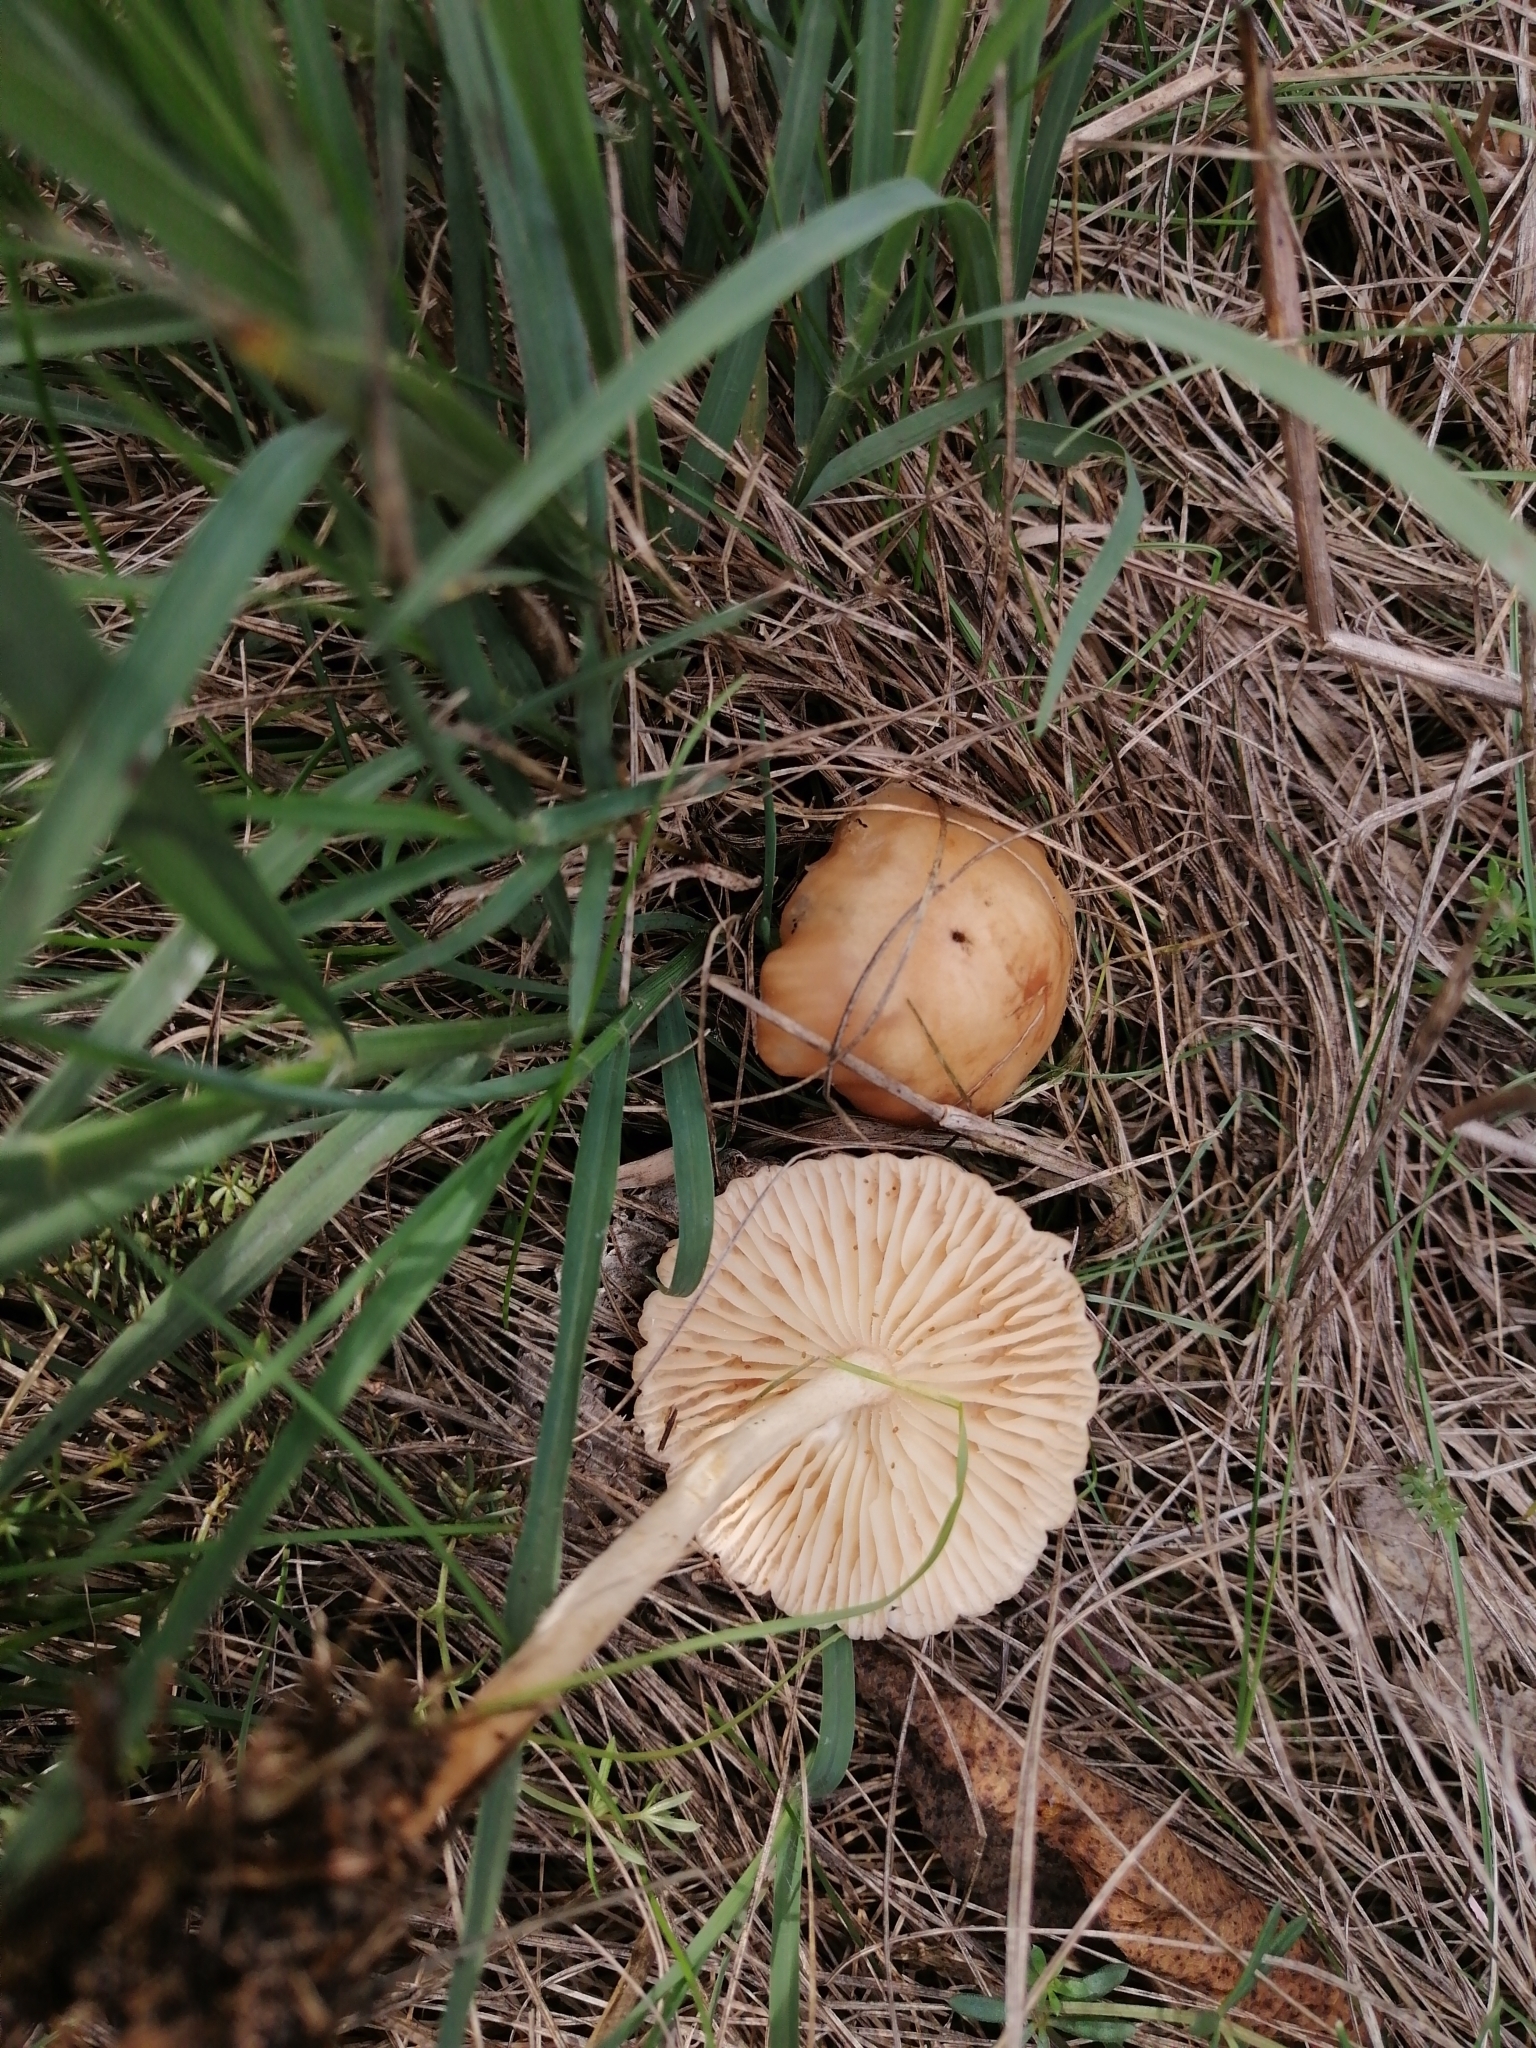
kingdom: Fungi
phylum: Basidiomycota
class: Agaricomycetes
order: Agaricales
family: Marasmiaceae
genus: Marasmius
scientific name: Marasmius oreades
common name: Fairy ring champignon
